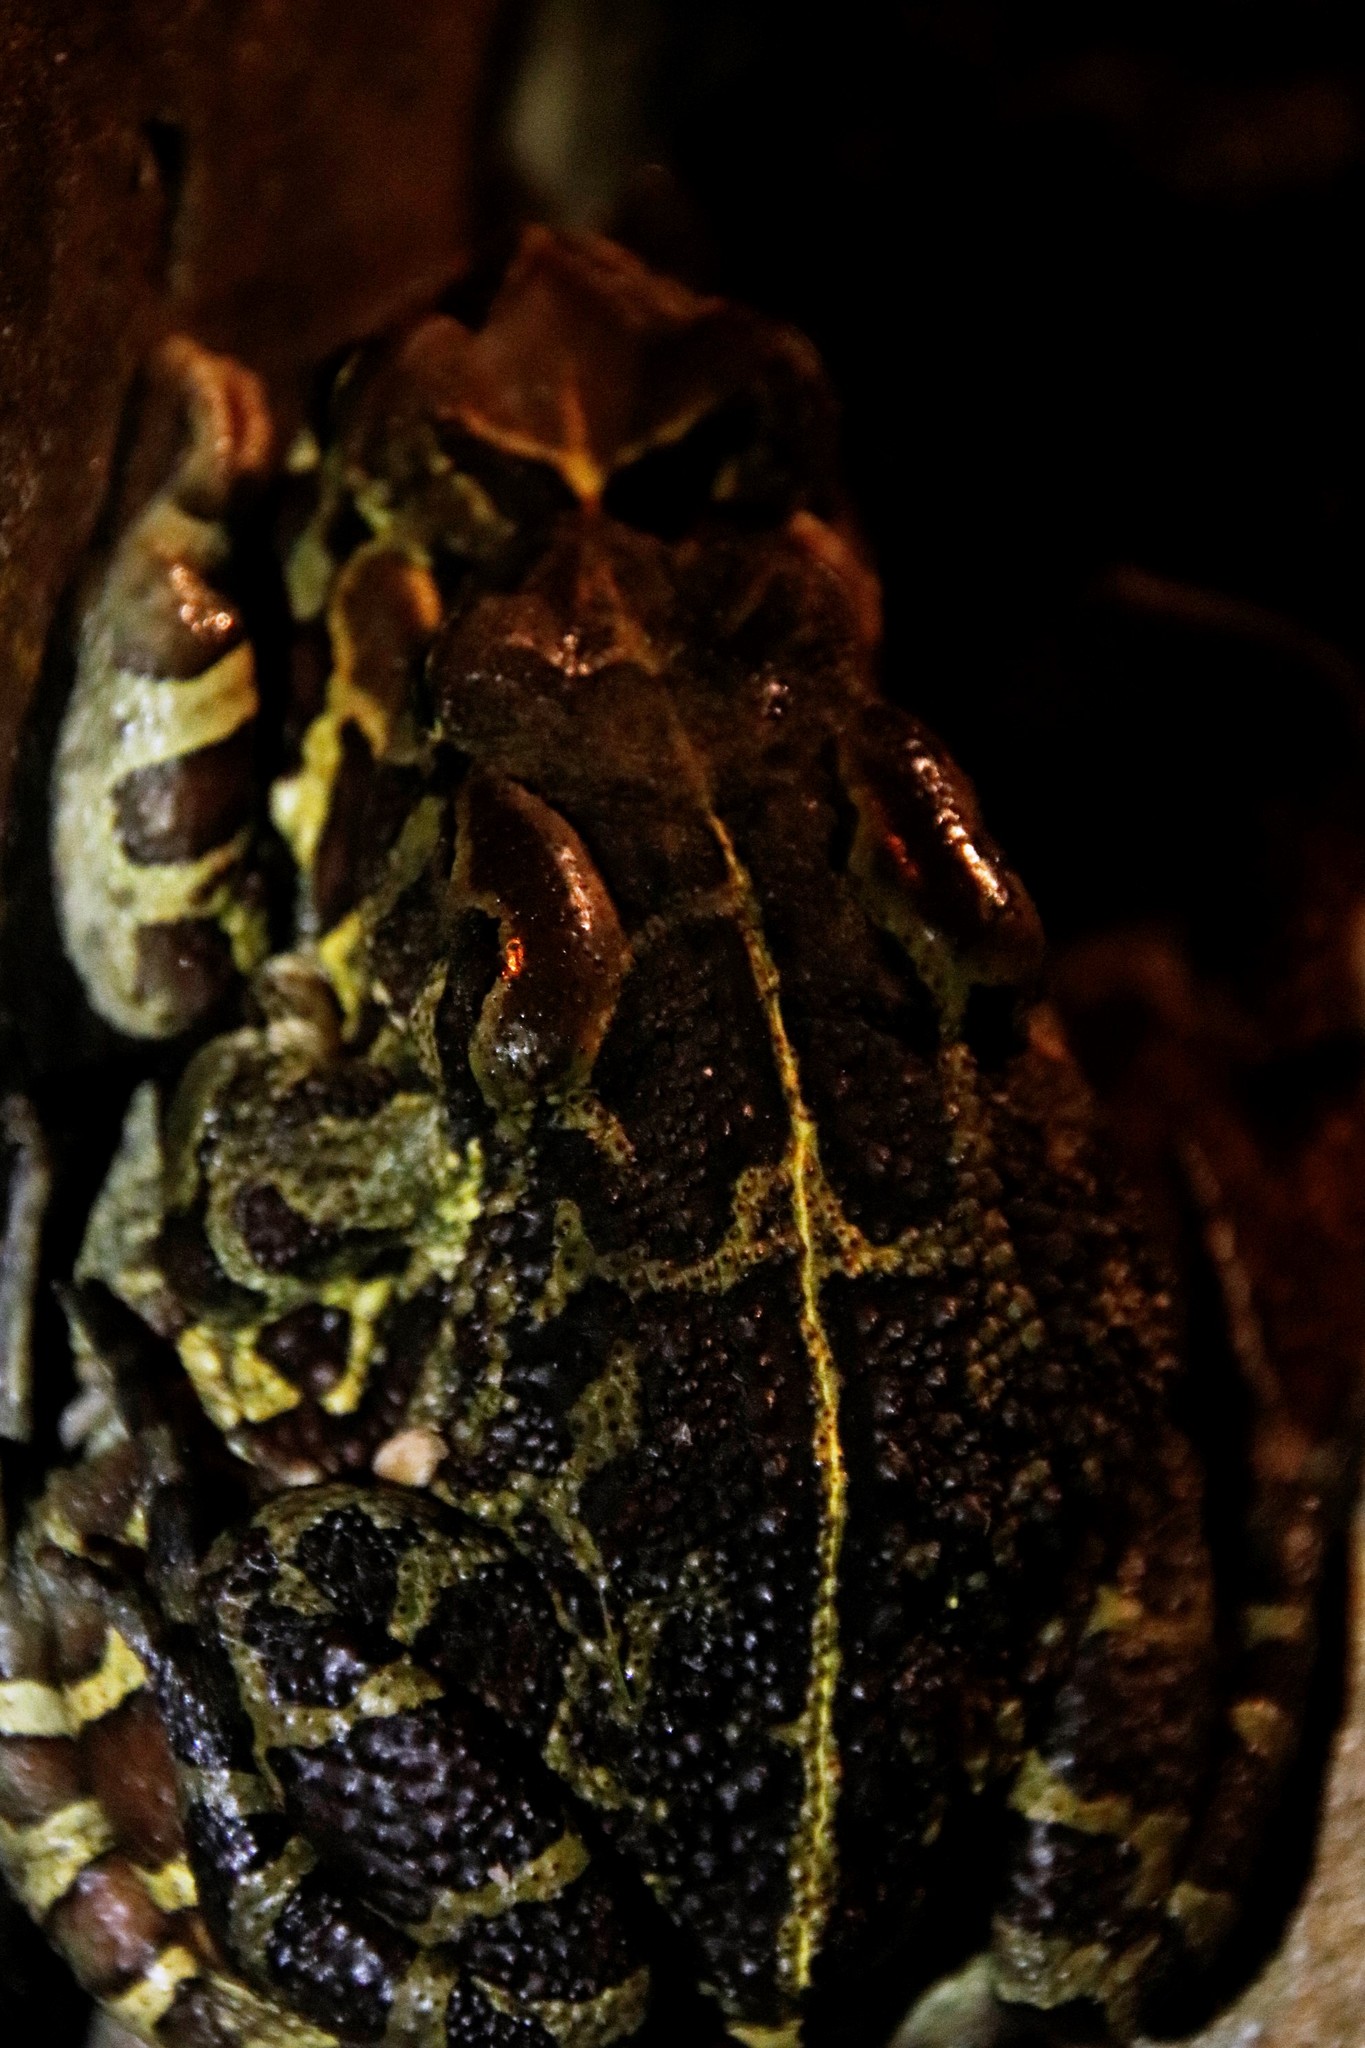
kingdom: Animalia
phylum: Chordata
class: Amphibia
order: Anura
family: Bufonidae
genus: Sclerophrys
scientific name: Sclerophrys pantherina
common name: Panther toad
